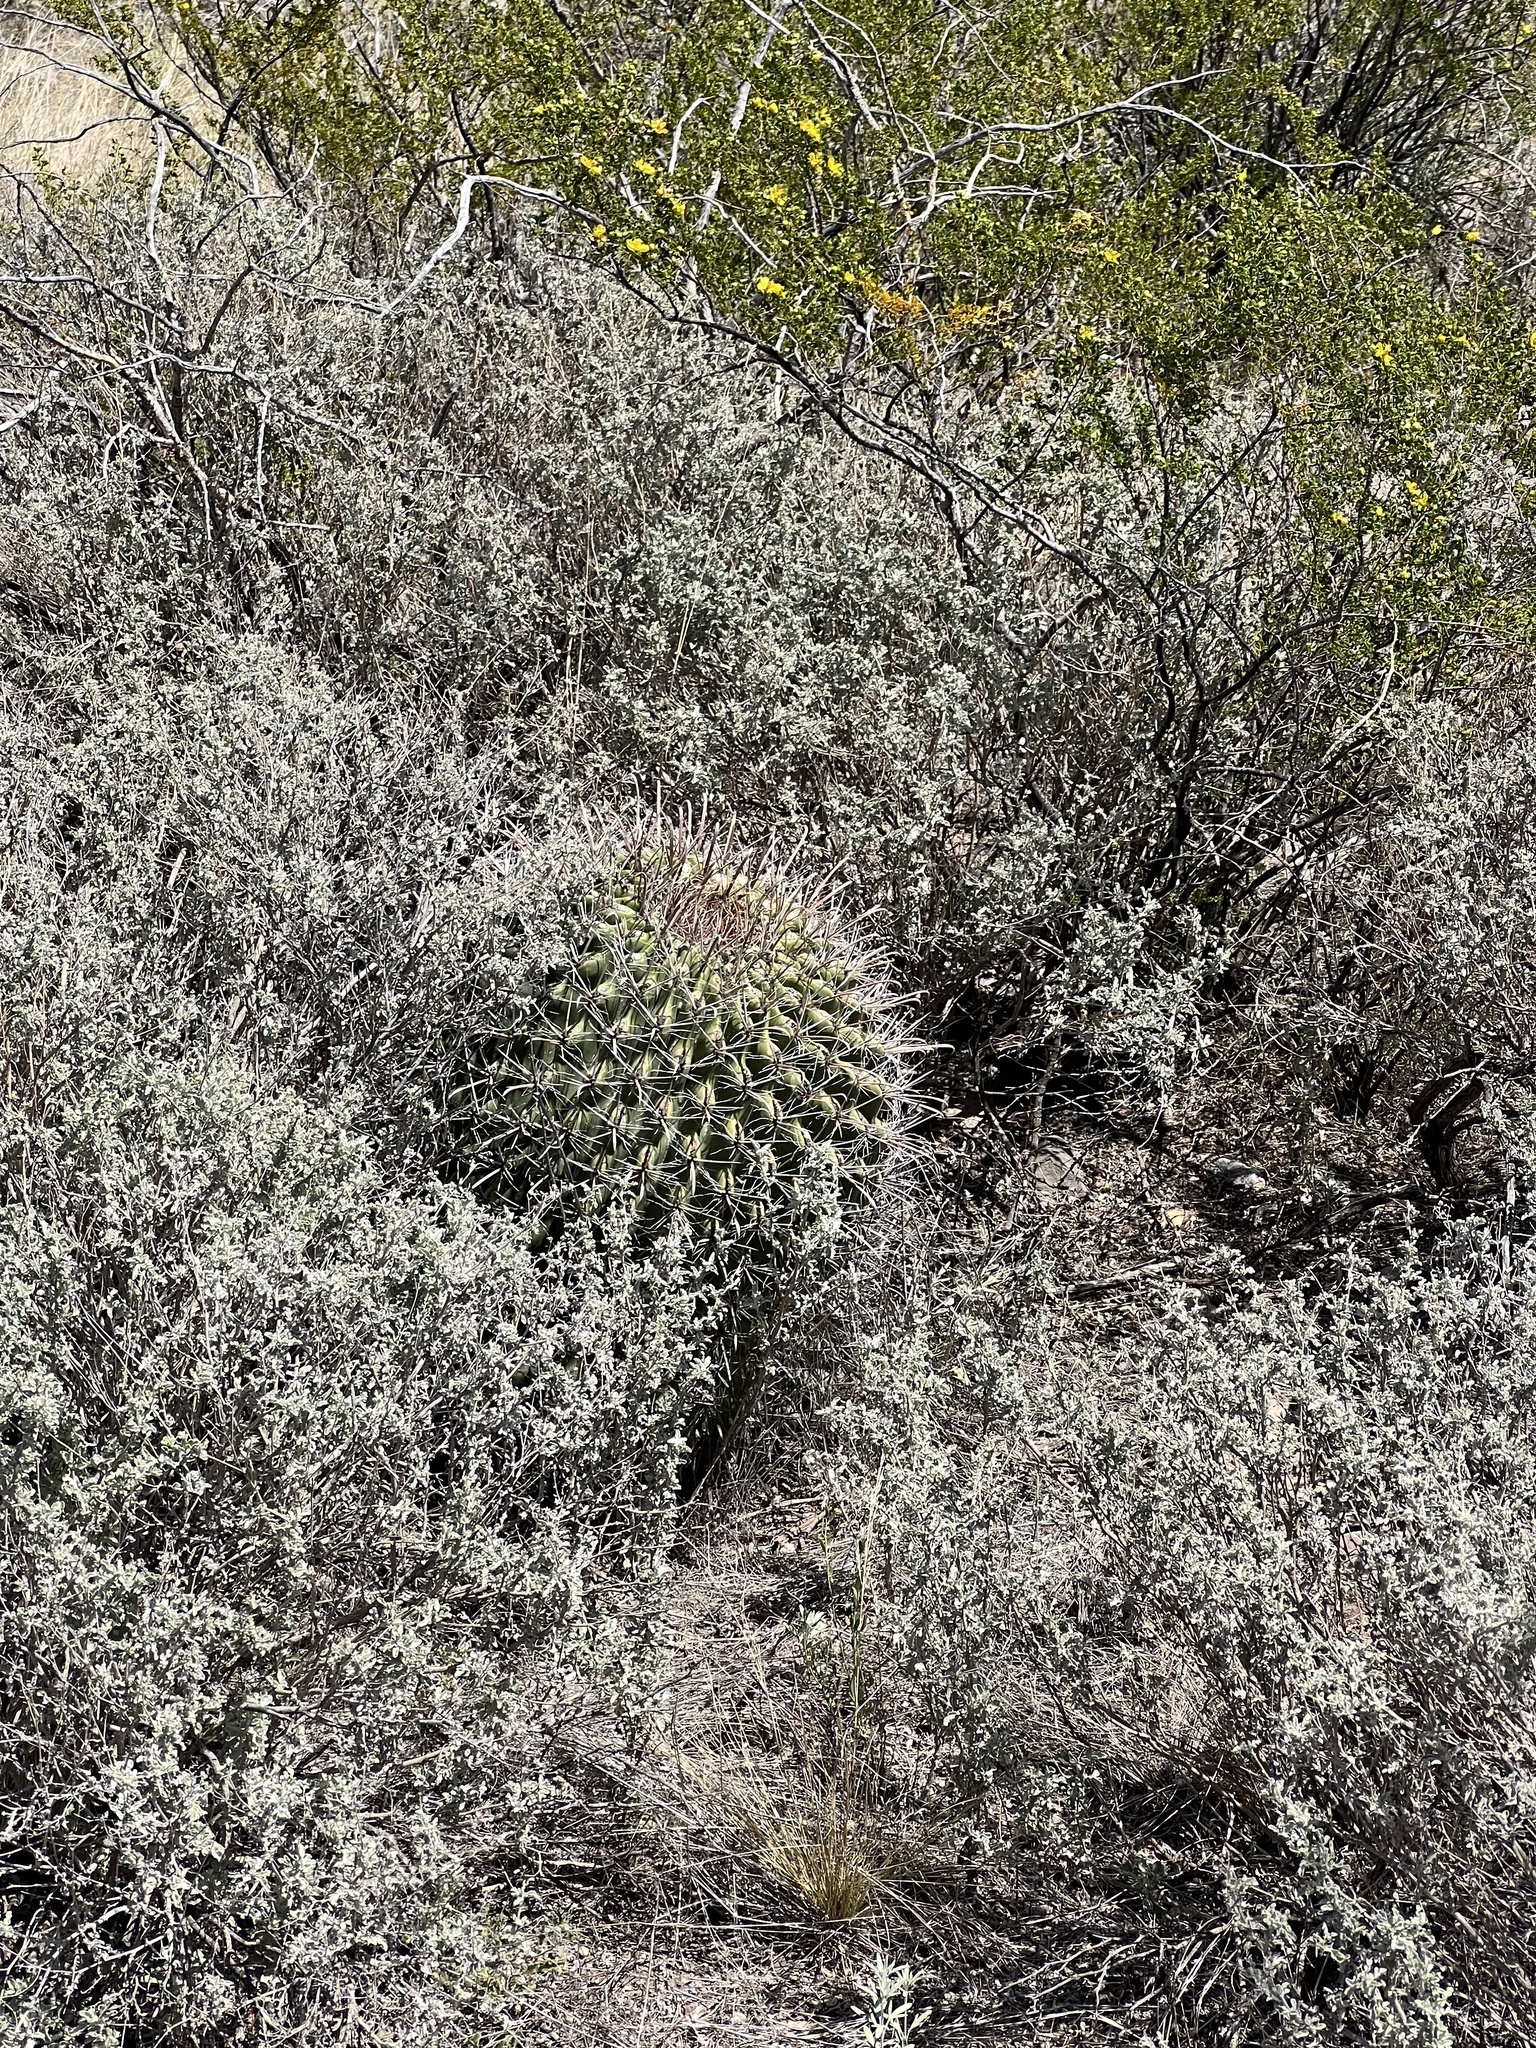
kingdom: Plantae
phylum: Tracheophyta
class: Magnoliopsida
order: Caryophyllales
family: Cactaceae
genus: Ferocactus
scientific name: Ferocactus wislizeni
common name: Candy barrel cactus
